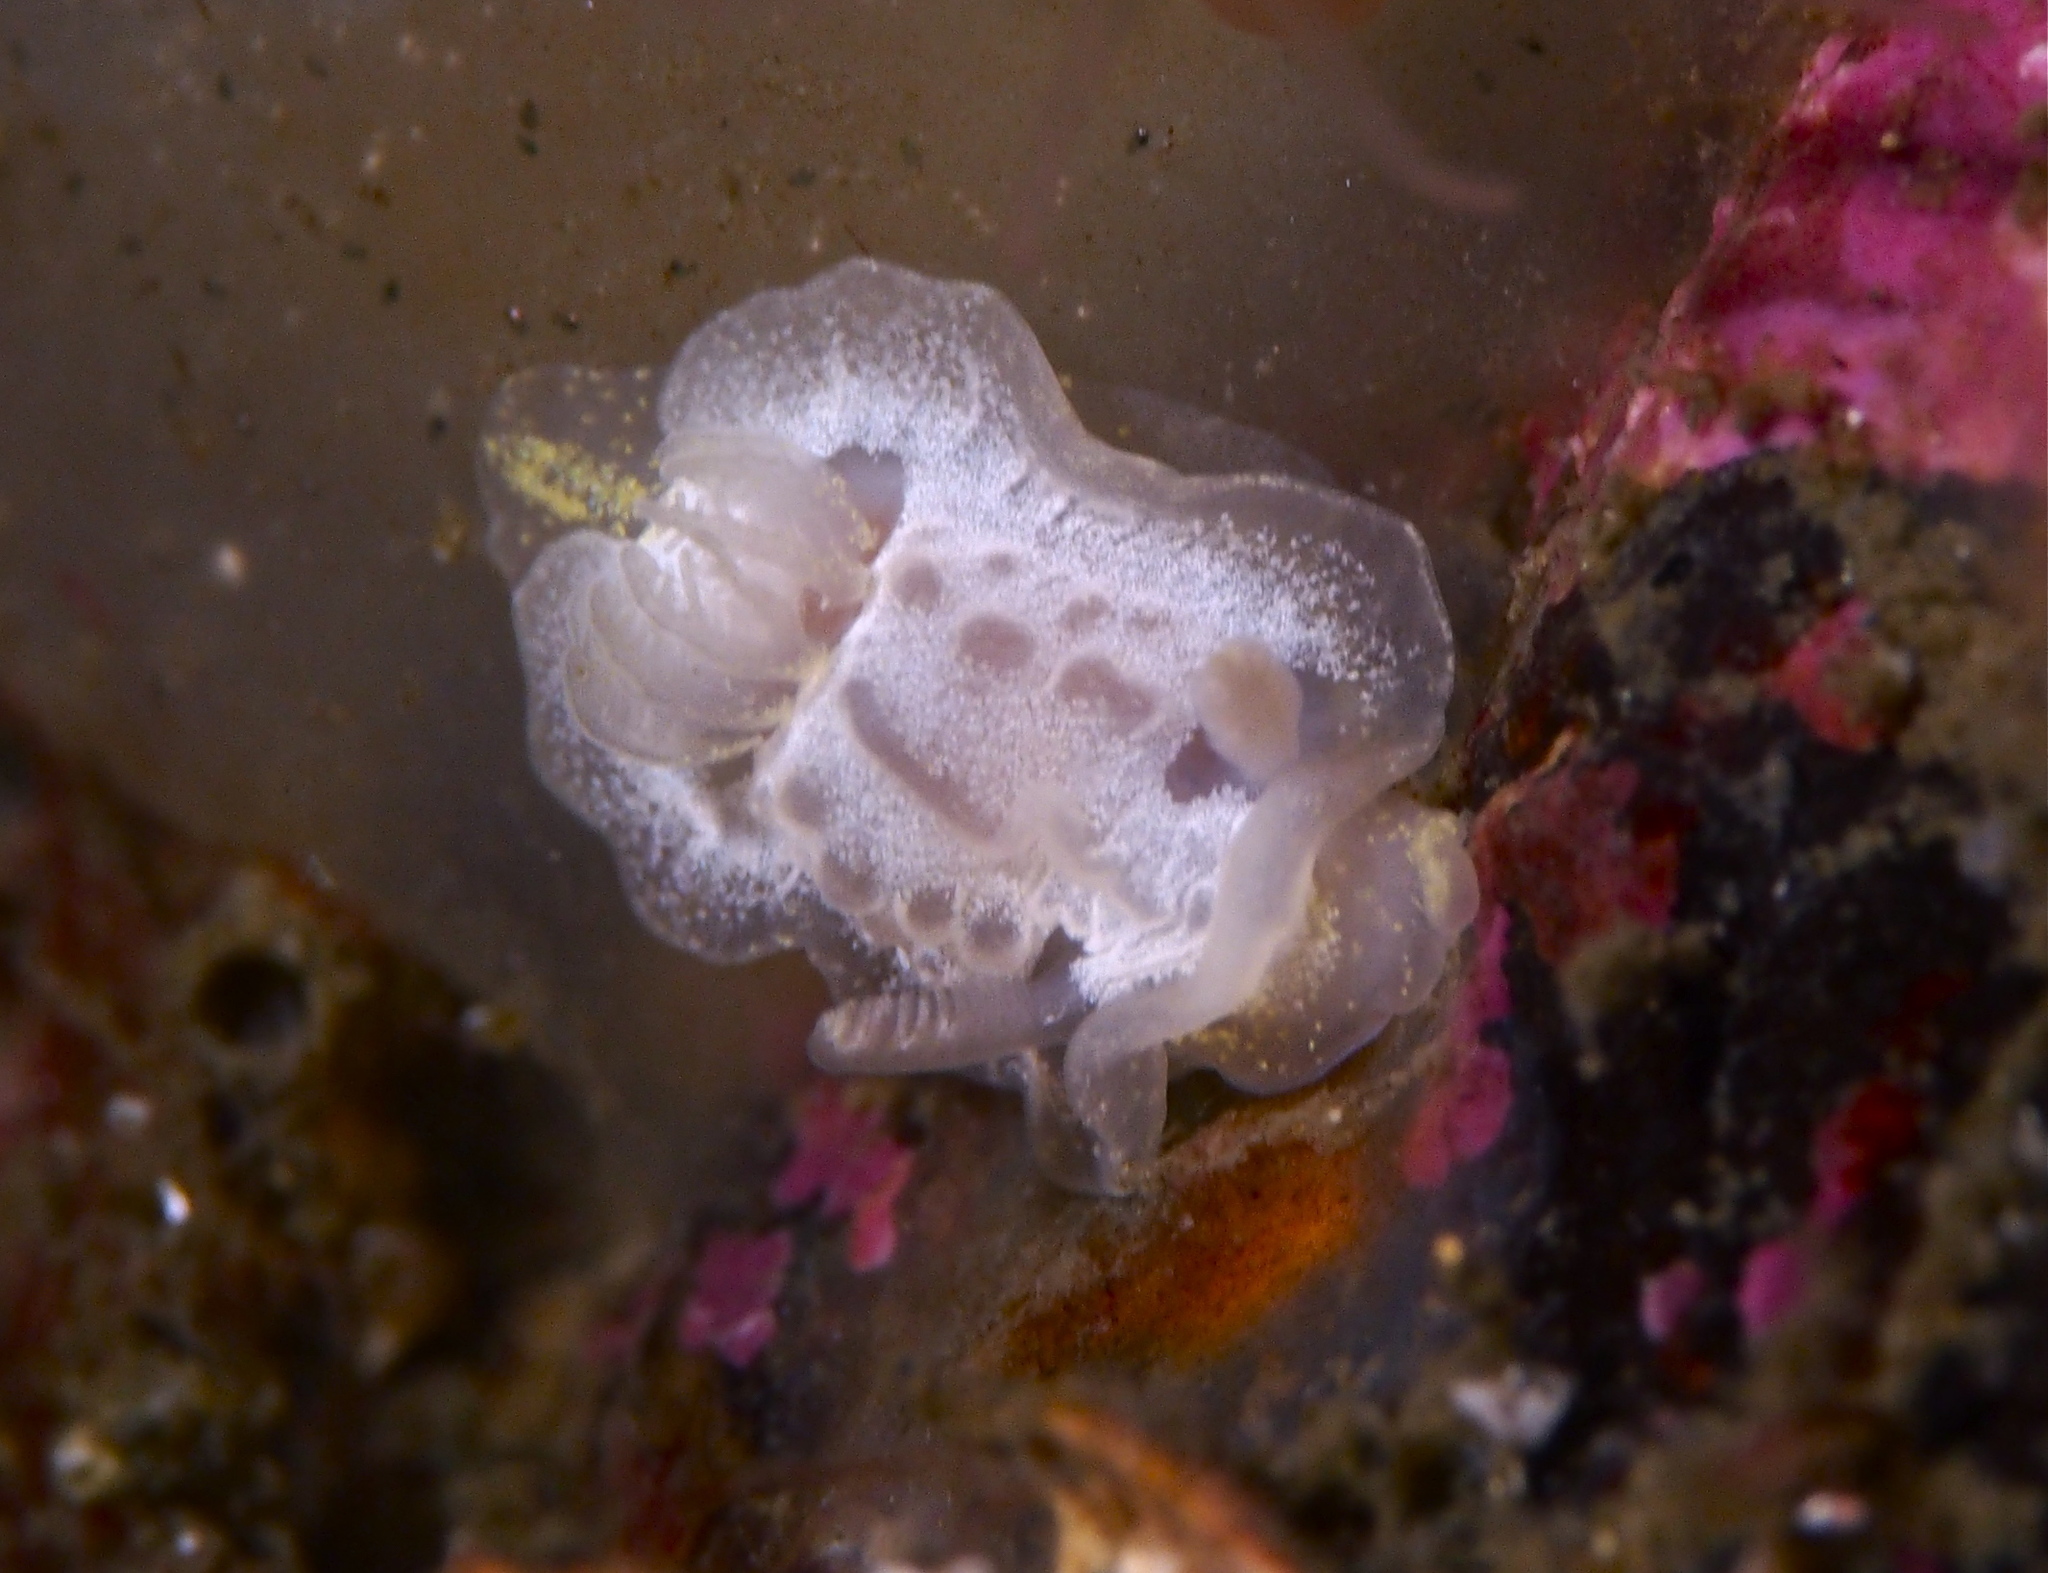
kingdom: Animalia
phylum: Mollusca
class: Gastropoda
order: Nudibranchia
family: Goniodorididae
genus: Okenia
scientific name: Okenia
